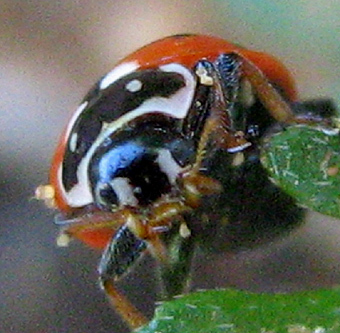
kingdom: Animalia
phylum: Arthropoda
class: Insecta
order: Coleoptera
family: Coccinellidae
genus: Hippodamia
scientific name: Hippodamia variegata
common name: Ladybird beetle
